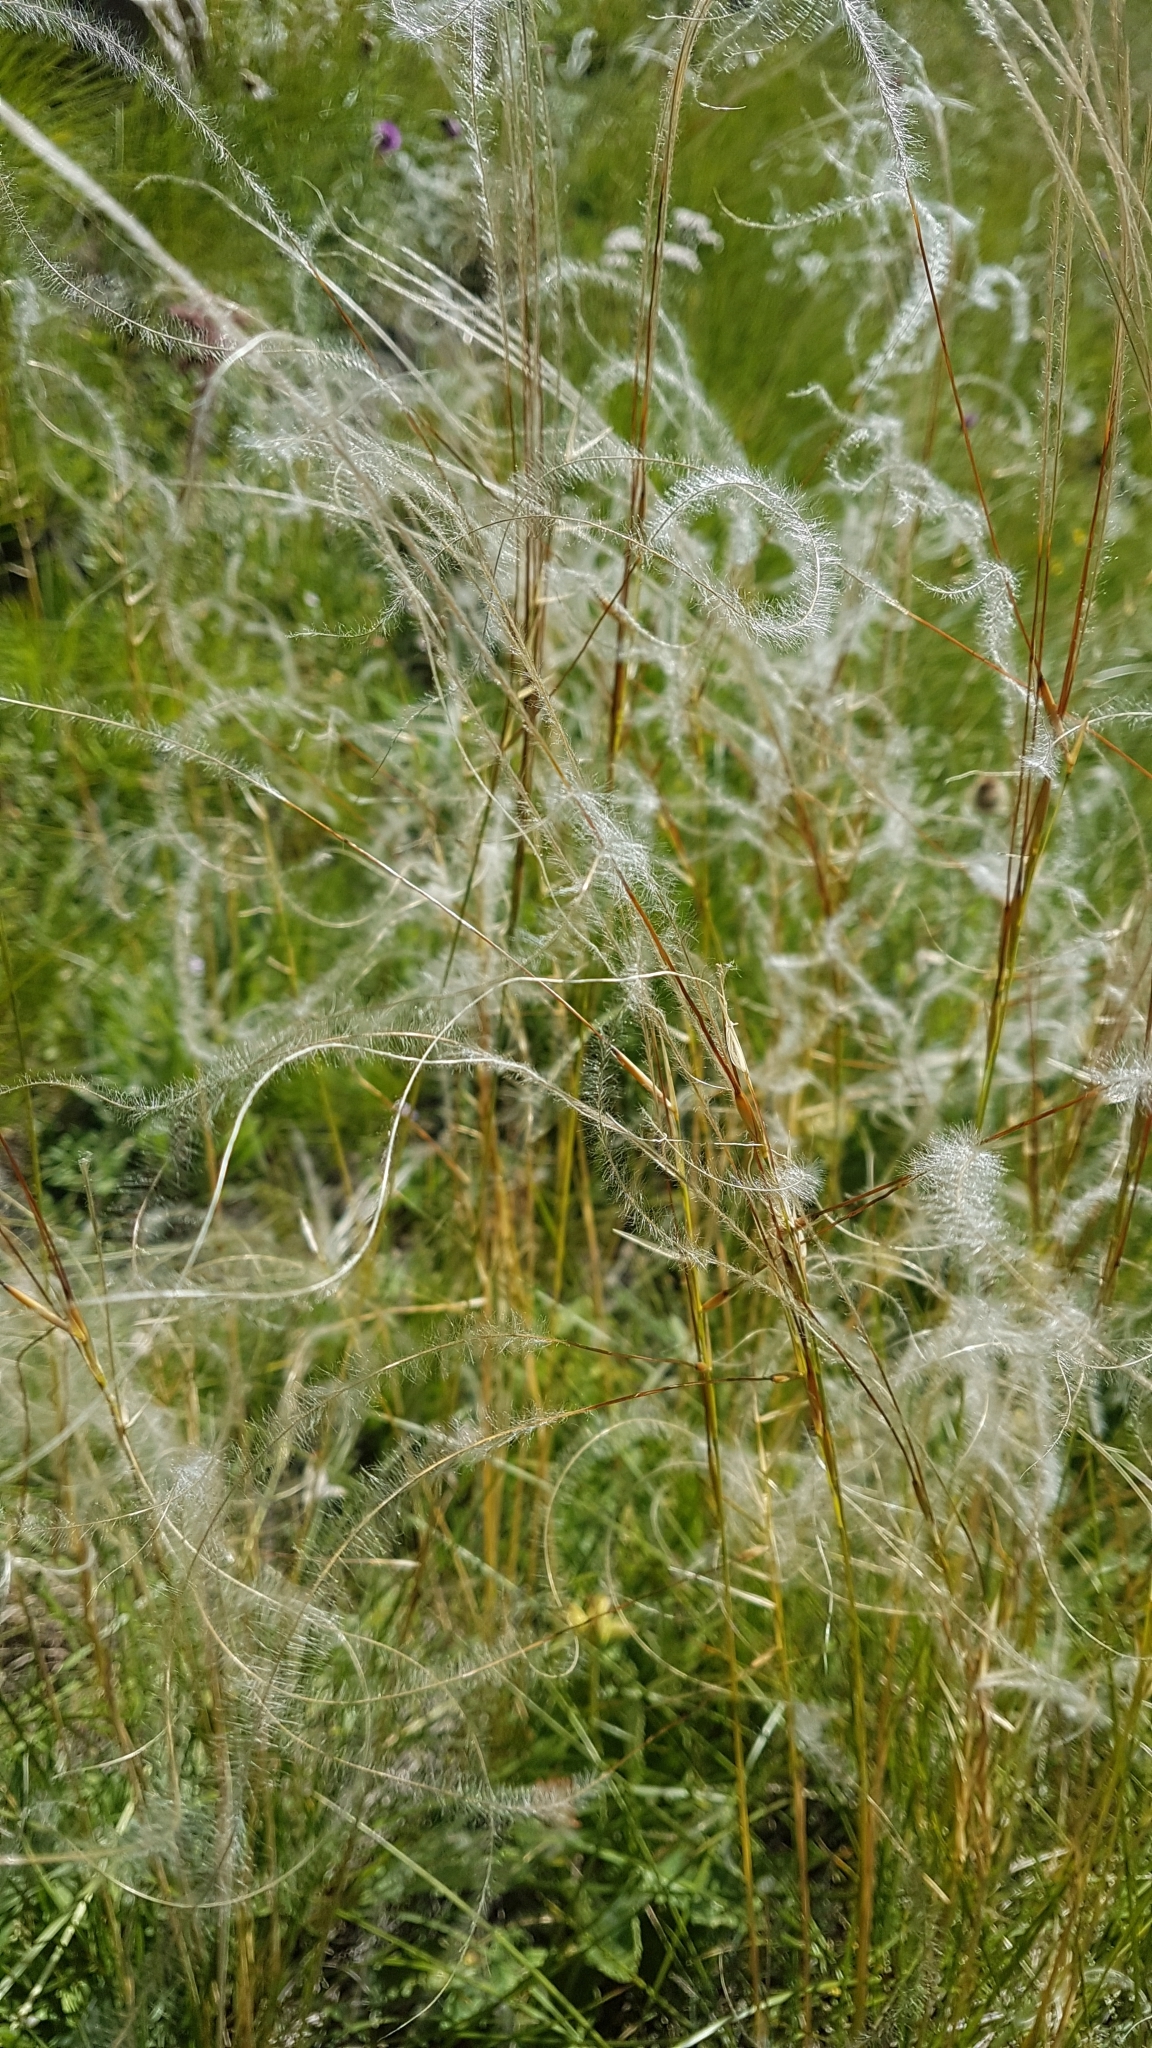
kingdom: Plantae
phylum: Tracheophyta
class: Liliopsida
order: Poales
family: Poaceae
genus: Stipa
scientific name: Stipa pennata
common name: European feather grass
